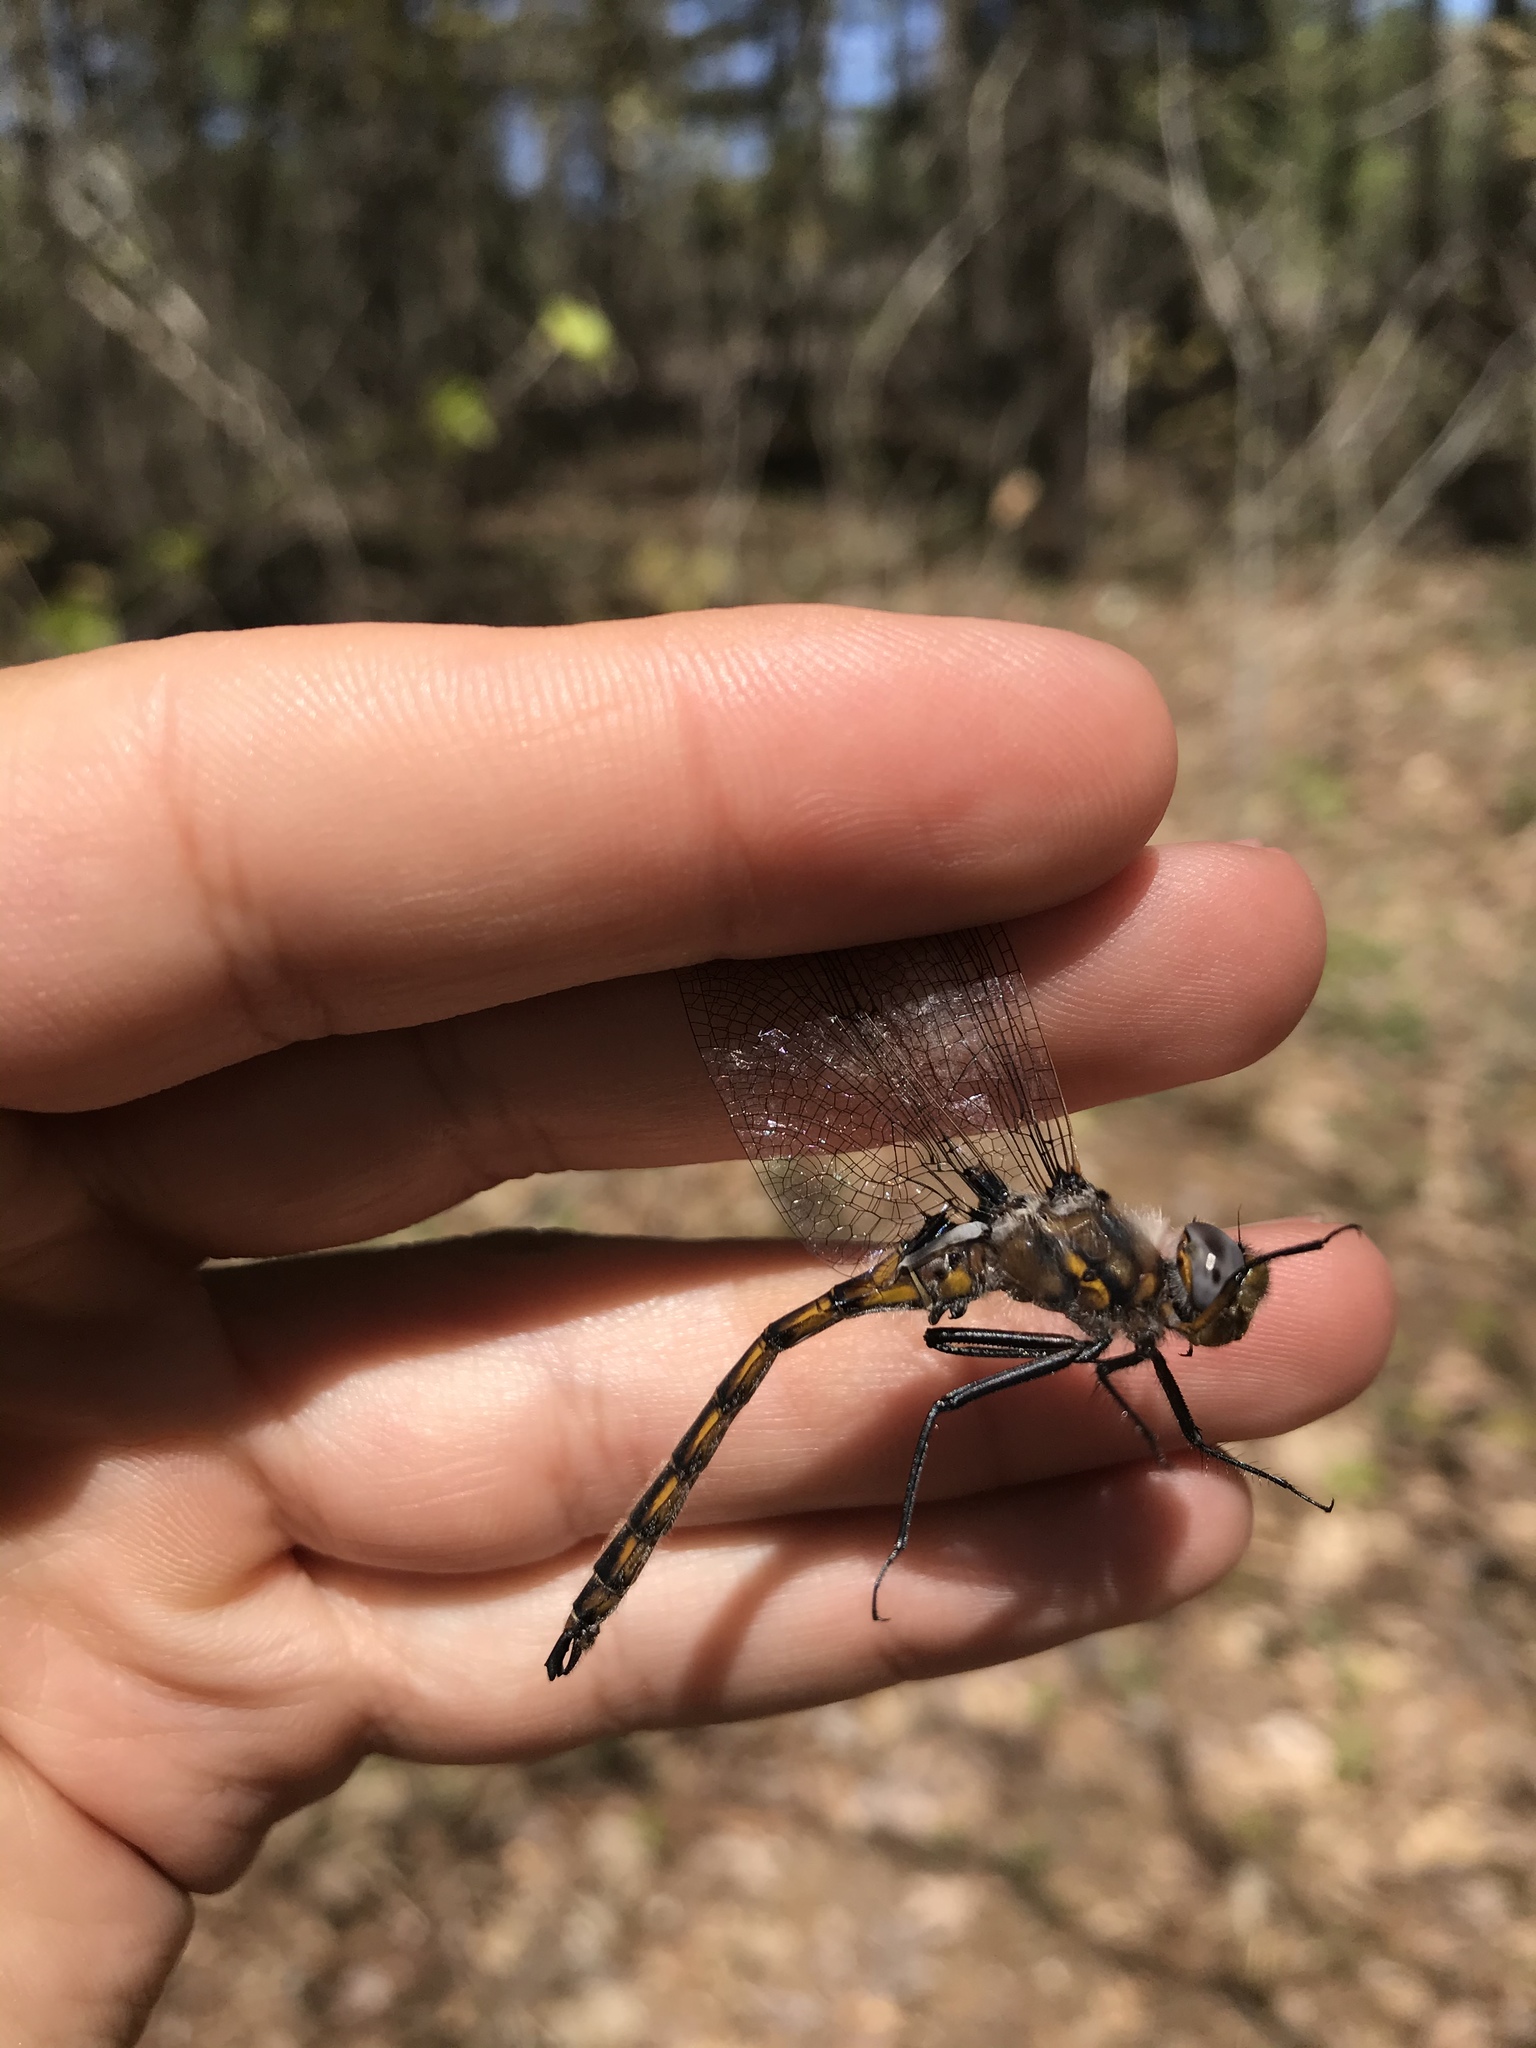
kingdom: Animalia
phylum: Arthropoda
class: Insecta
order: Odonata
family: Corduliidae
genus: Epitheca
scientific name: Epitheca canis
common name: Beaverpond baskettail
